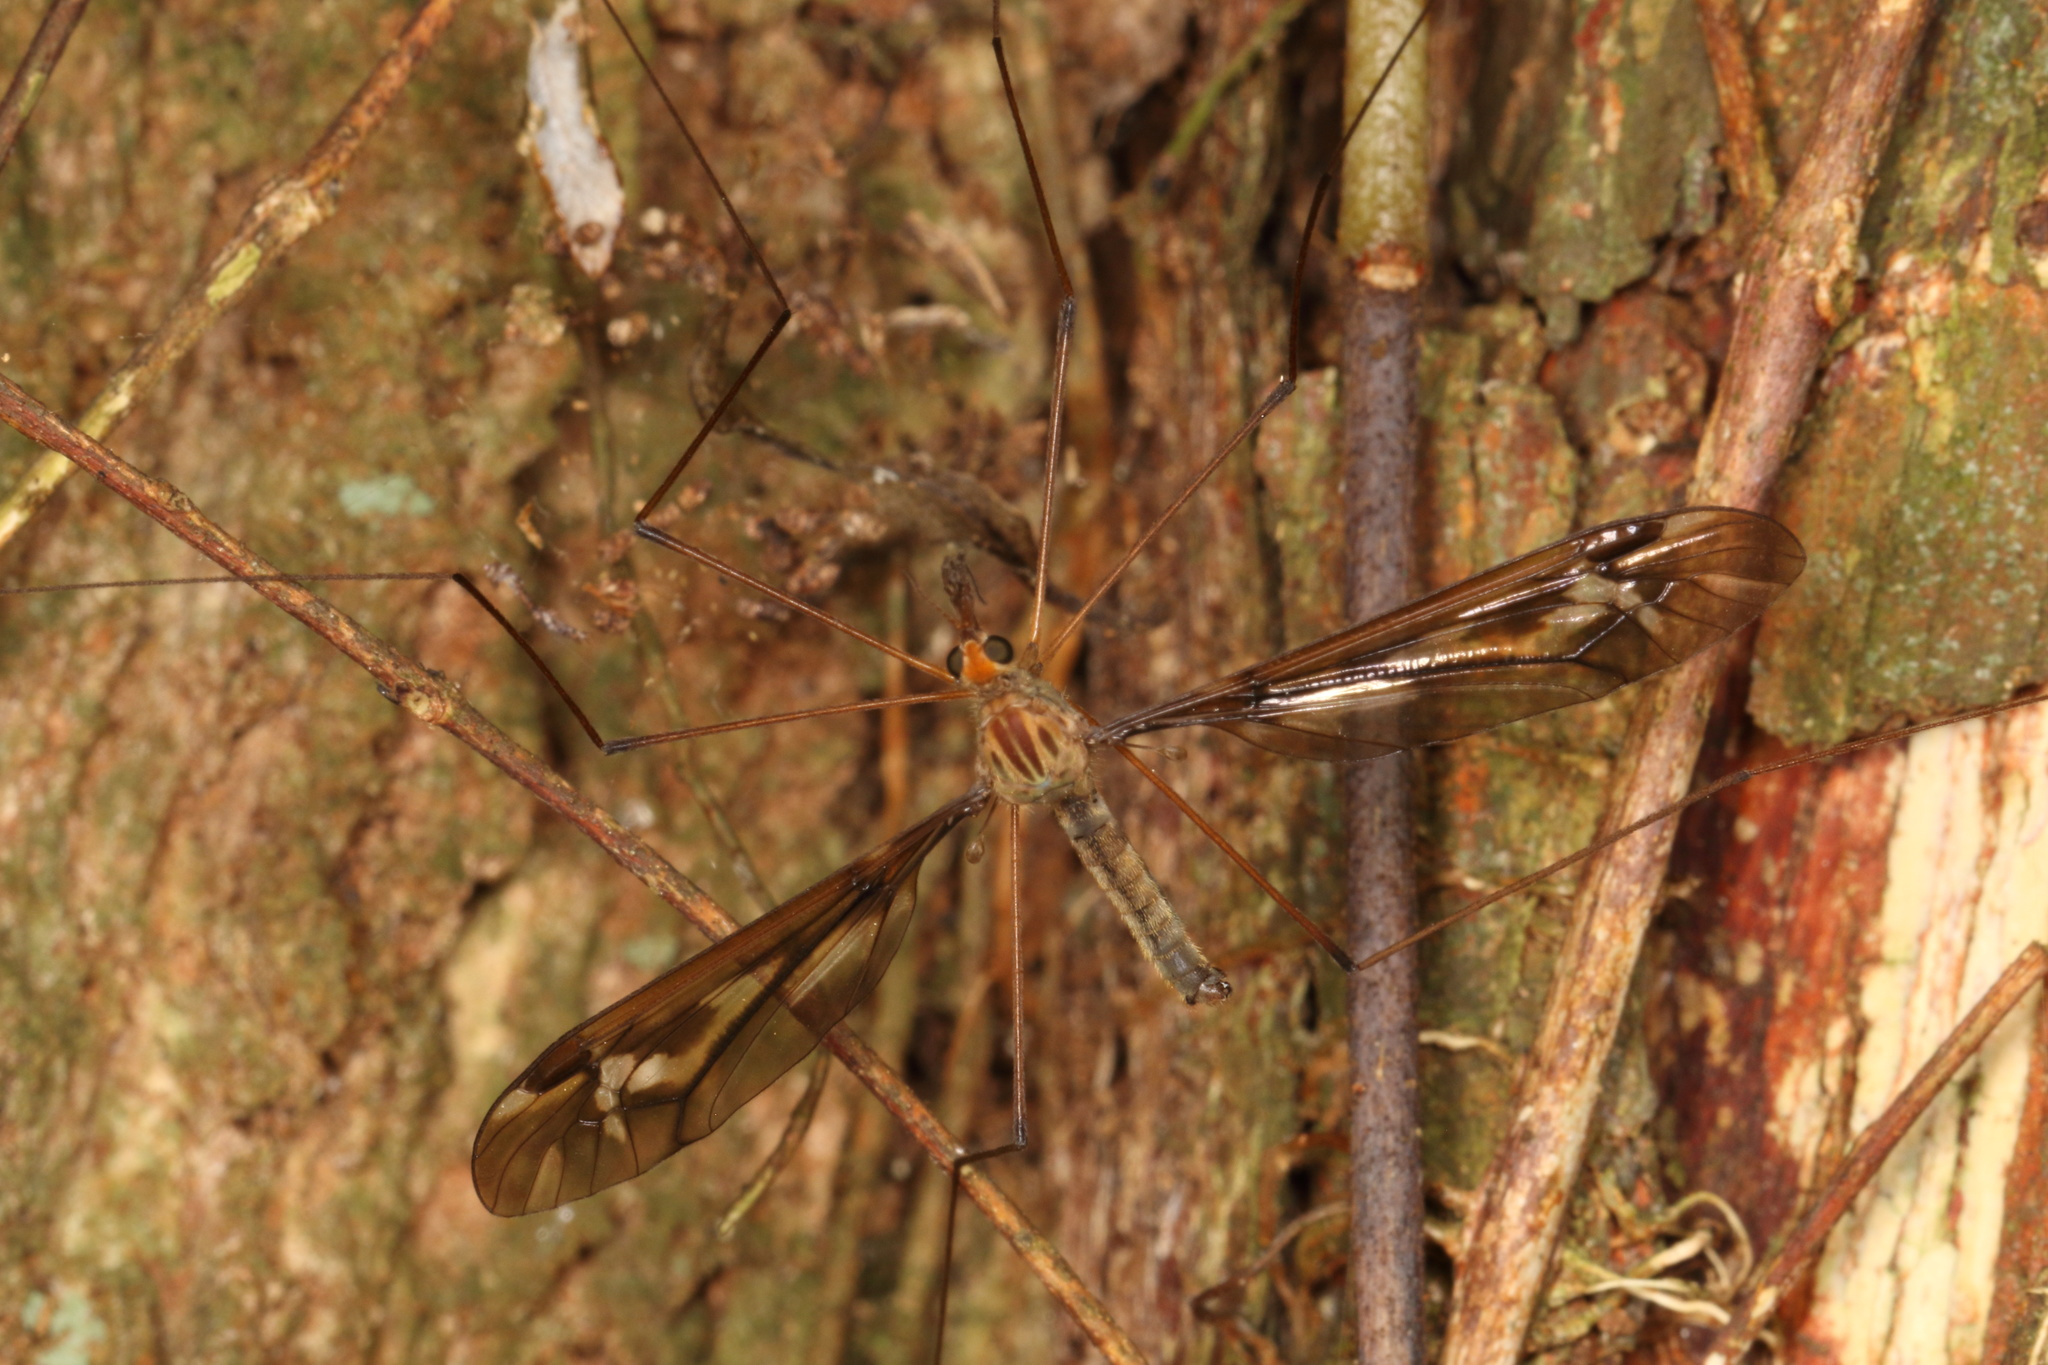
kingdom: Animalia
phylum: Arthropoda
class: Insecta
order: Diptera
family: Tipulidae
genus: Leptotarsus
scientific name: Leptotarsus huttoni
